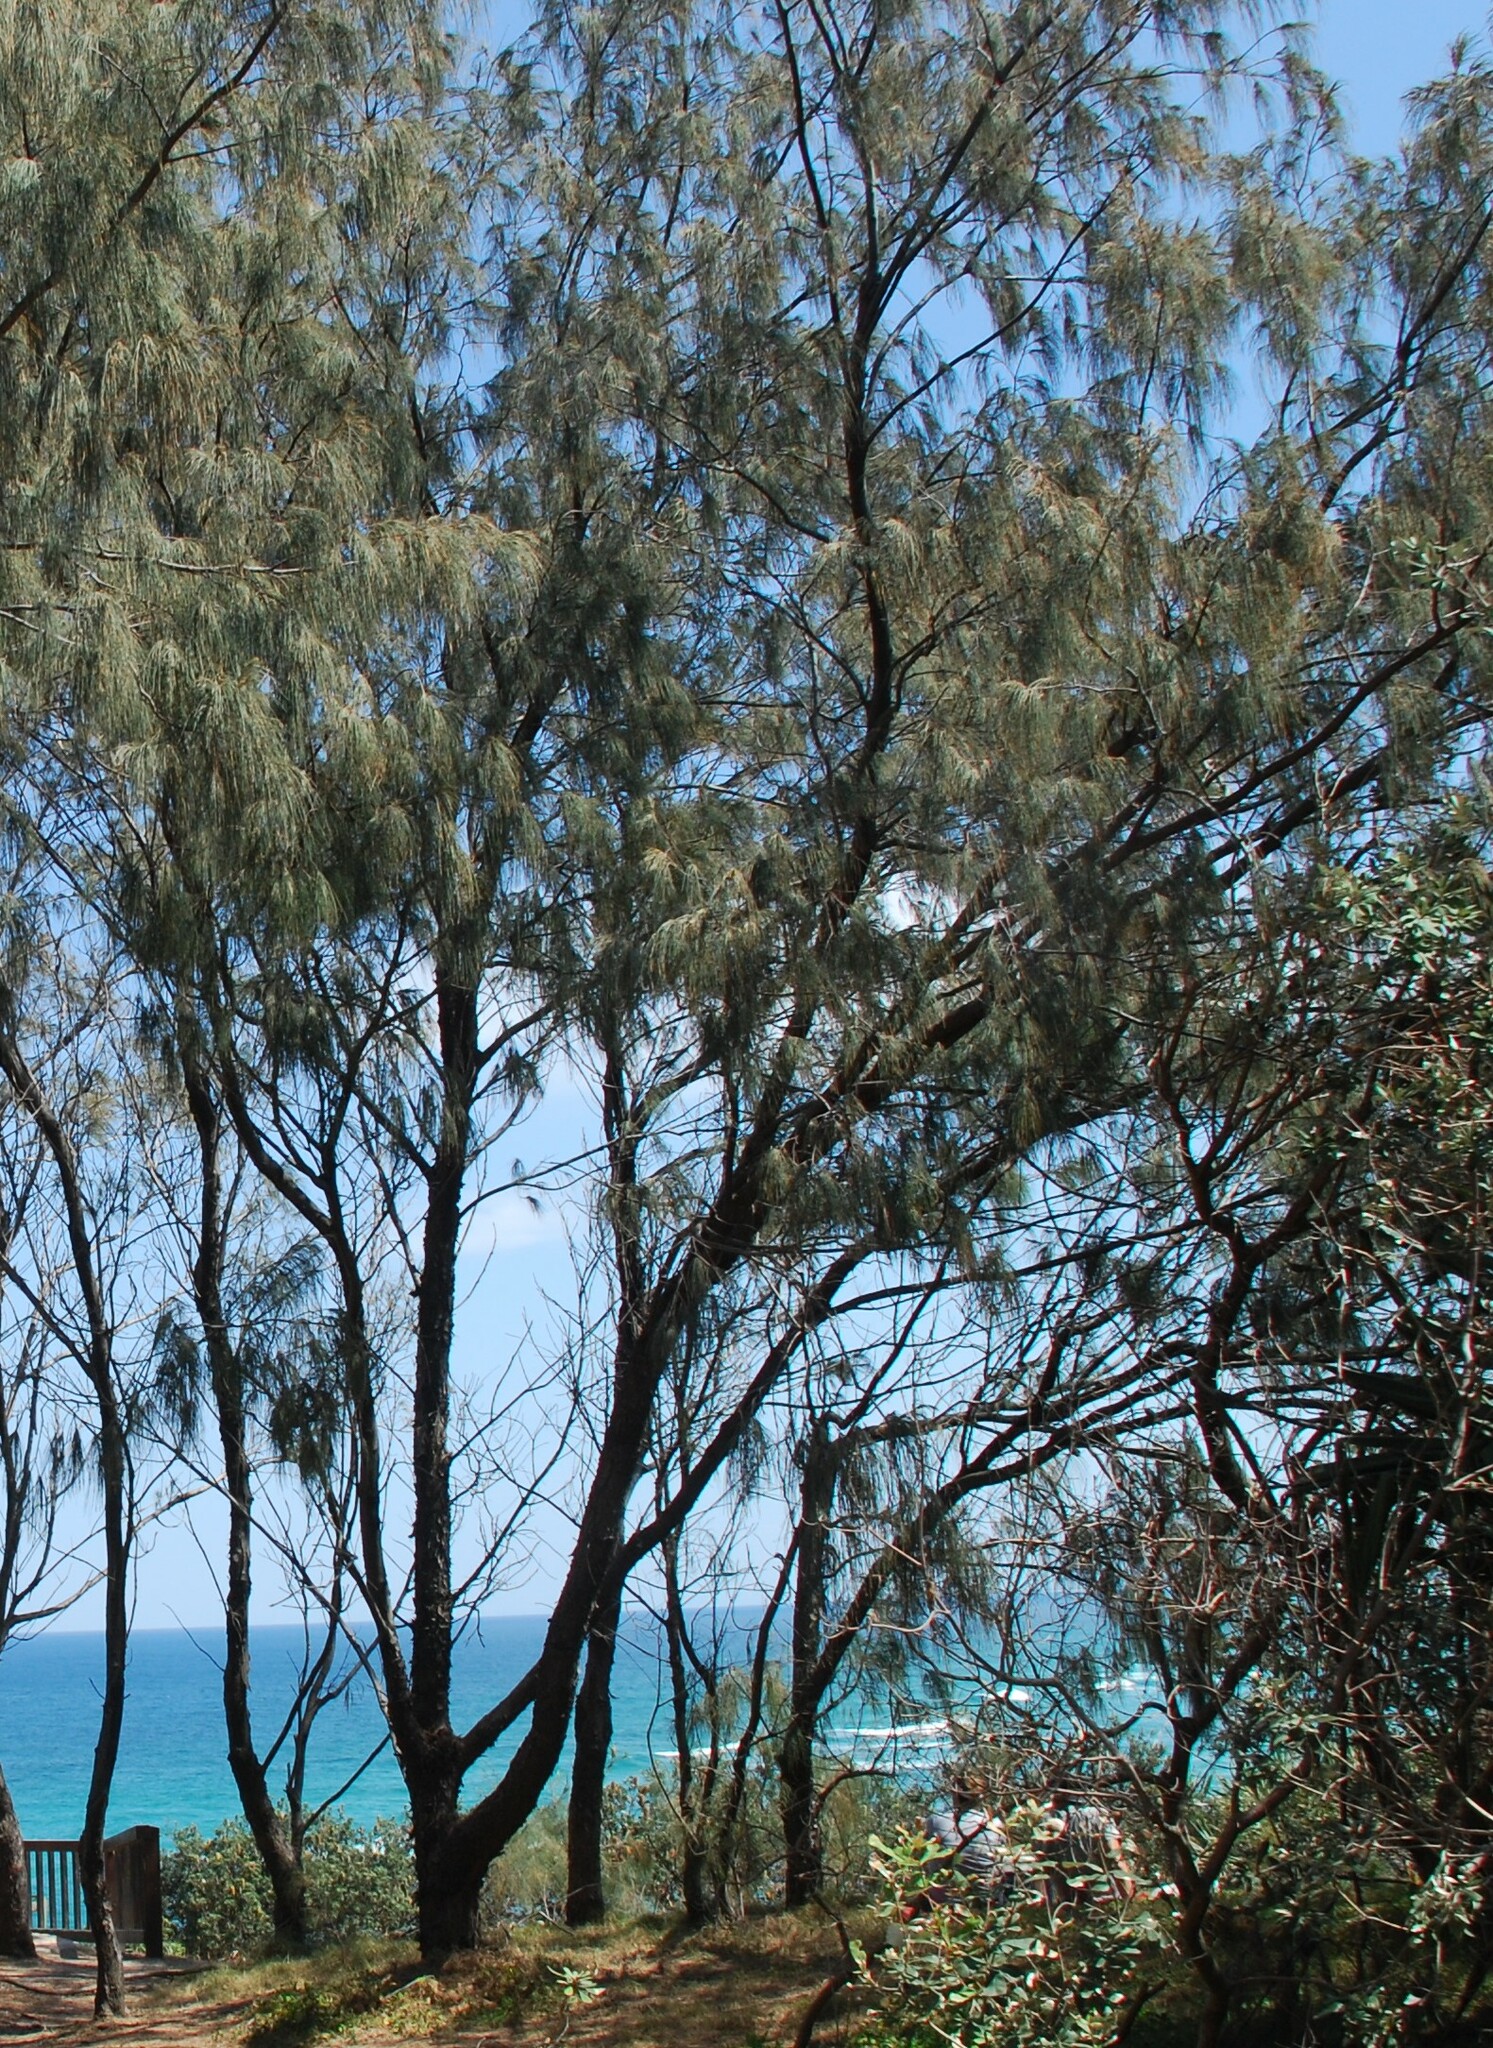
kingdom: Plantae
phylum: Tracheophyta
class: Magnoliopsida
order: Fagales
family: Casuarinaceae
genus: Casuarina
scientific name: Casuarina equisetifolia
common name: Beach sheoak
